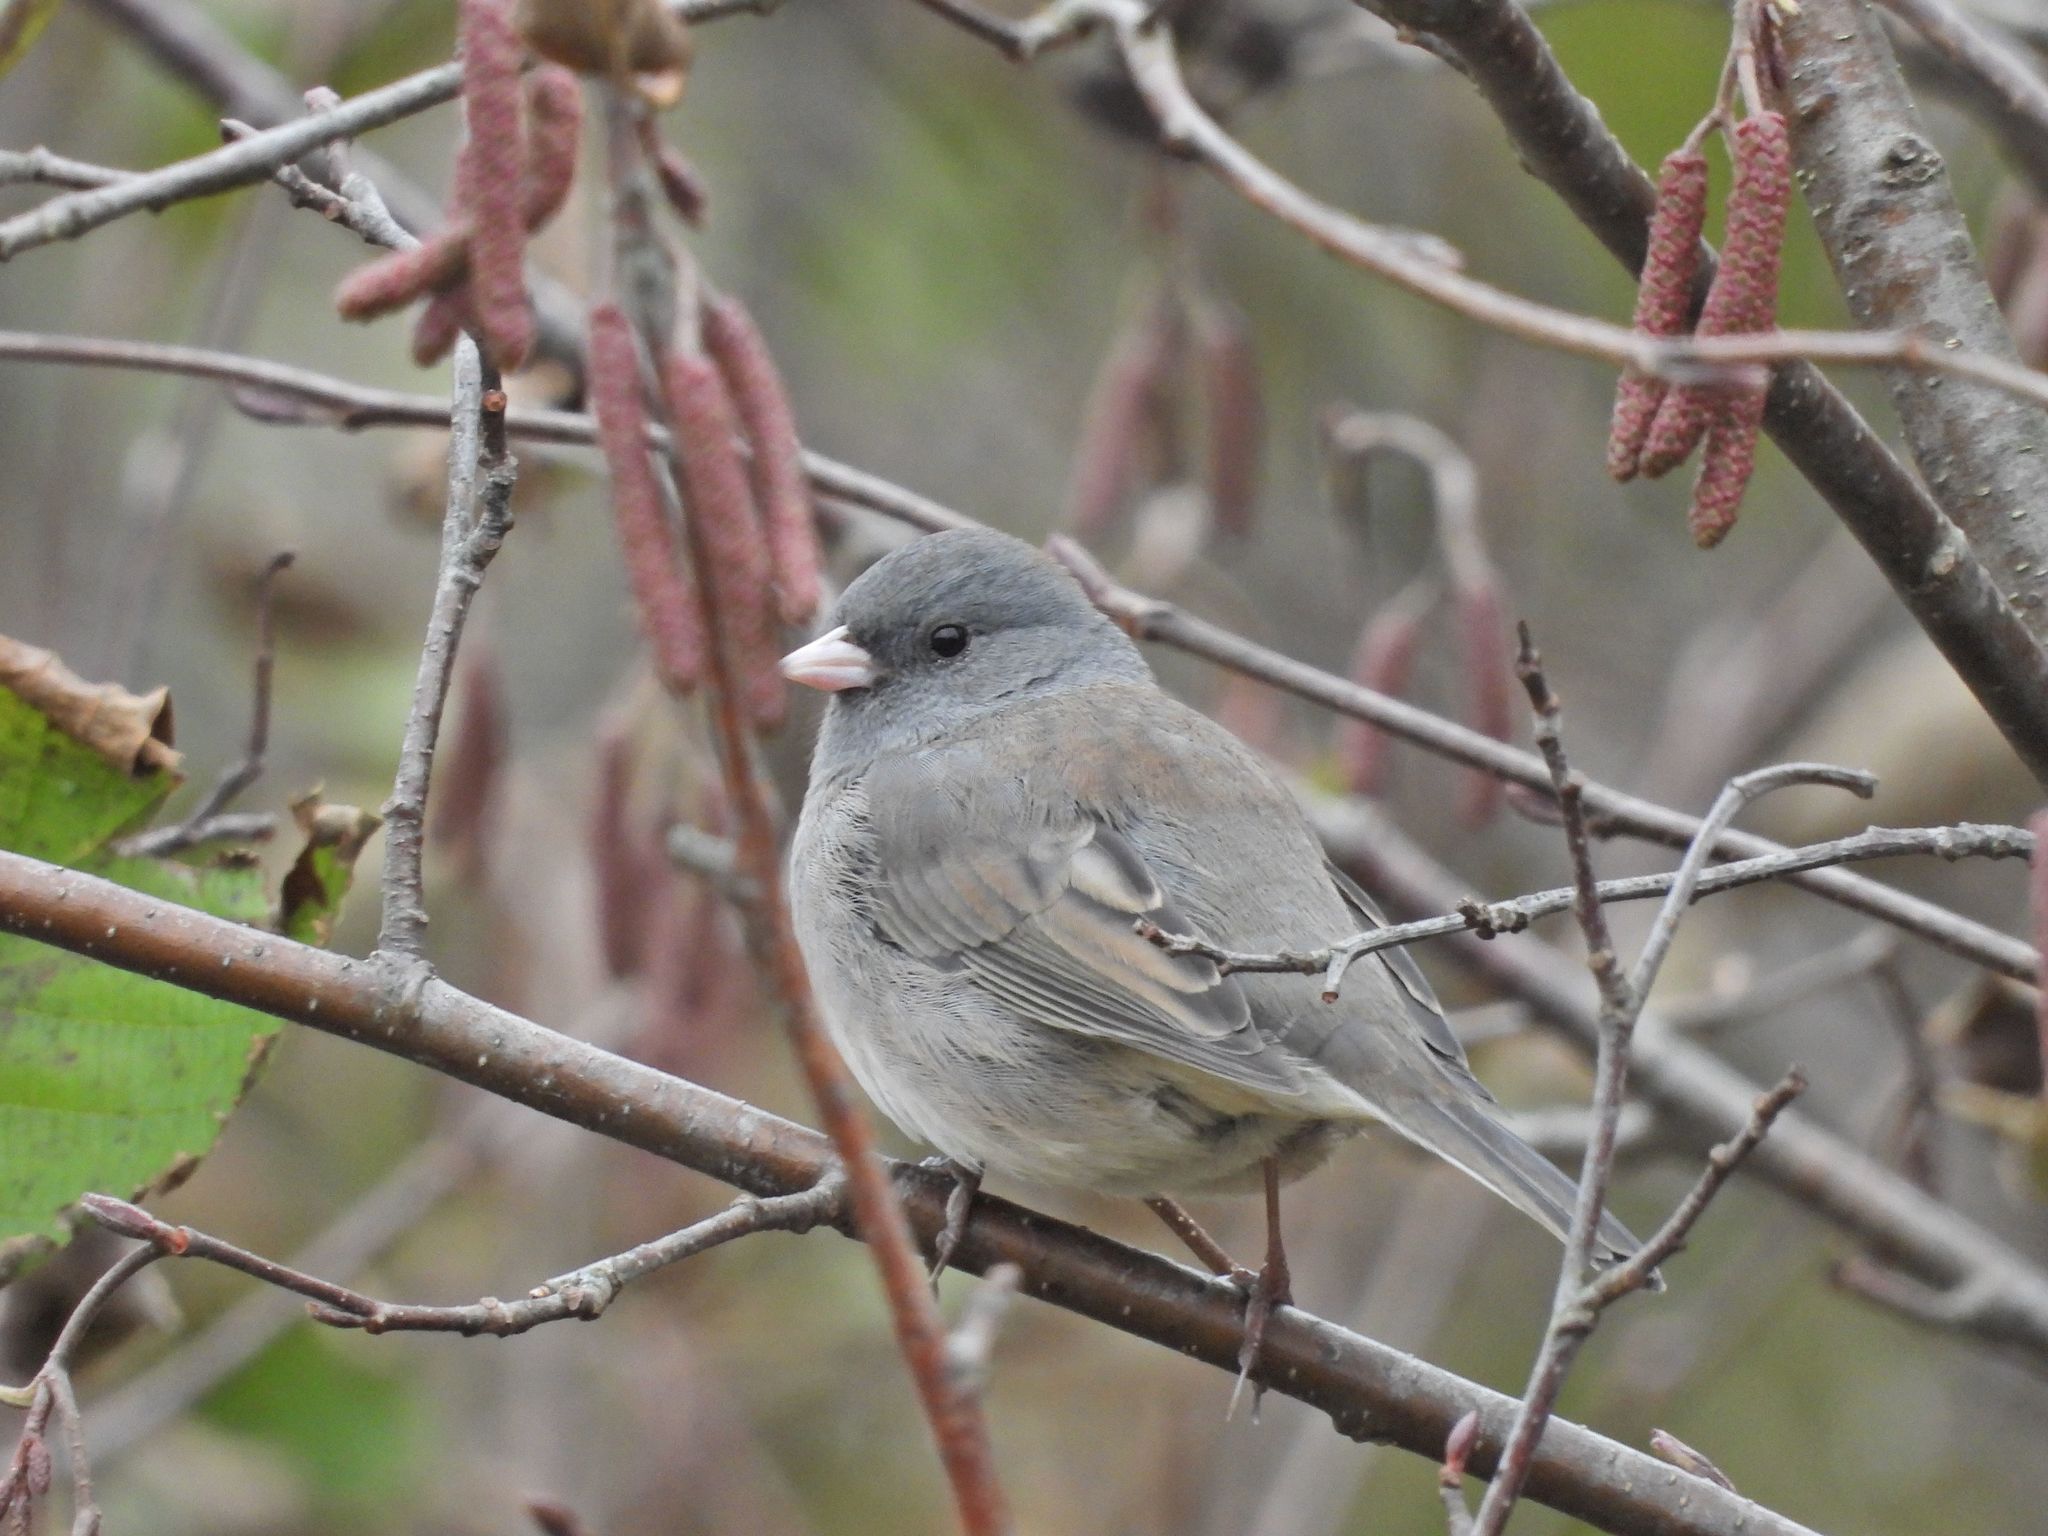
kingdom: Animalia
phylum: Chordata
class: Aves
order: Passeriformes
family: Passerellidae
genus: Junco
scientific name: Junco hyemalis
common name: Dark-eyed junco
